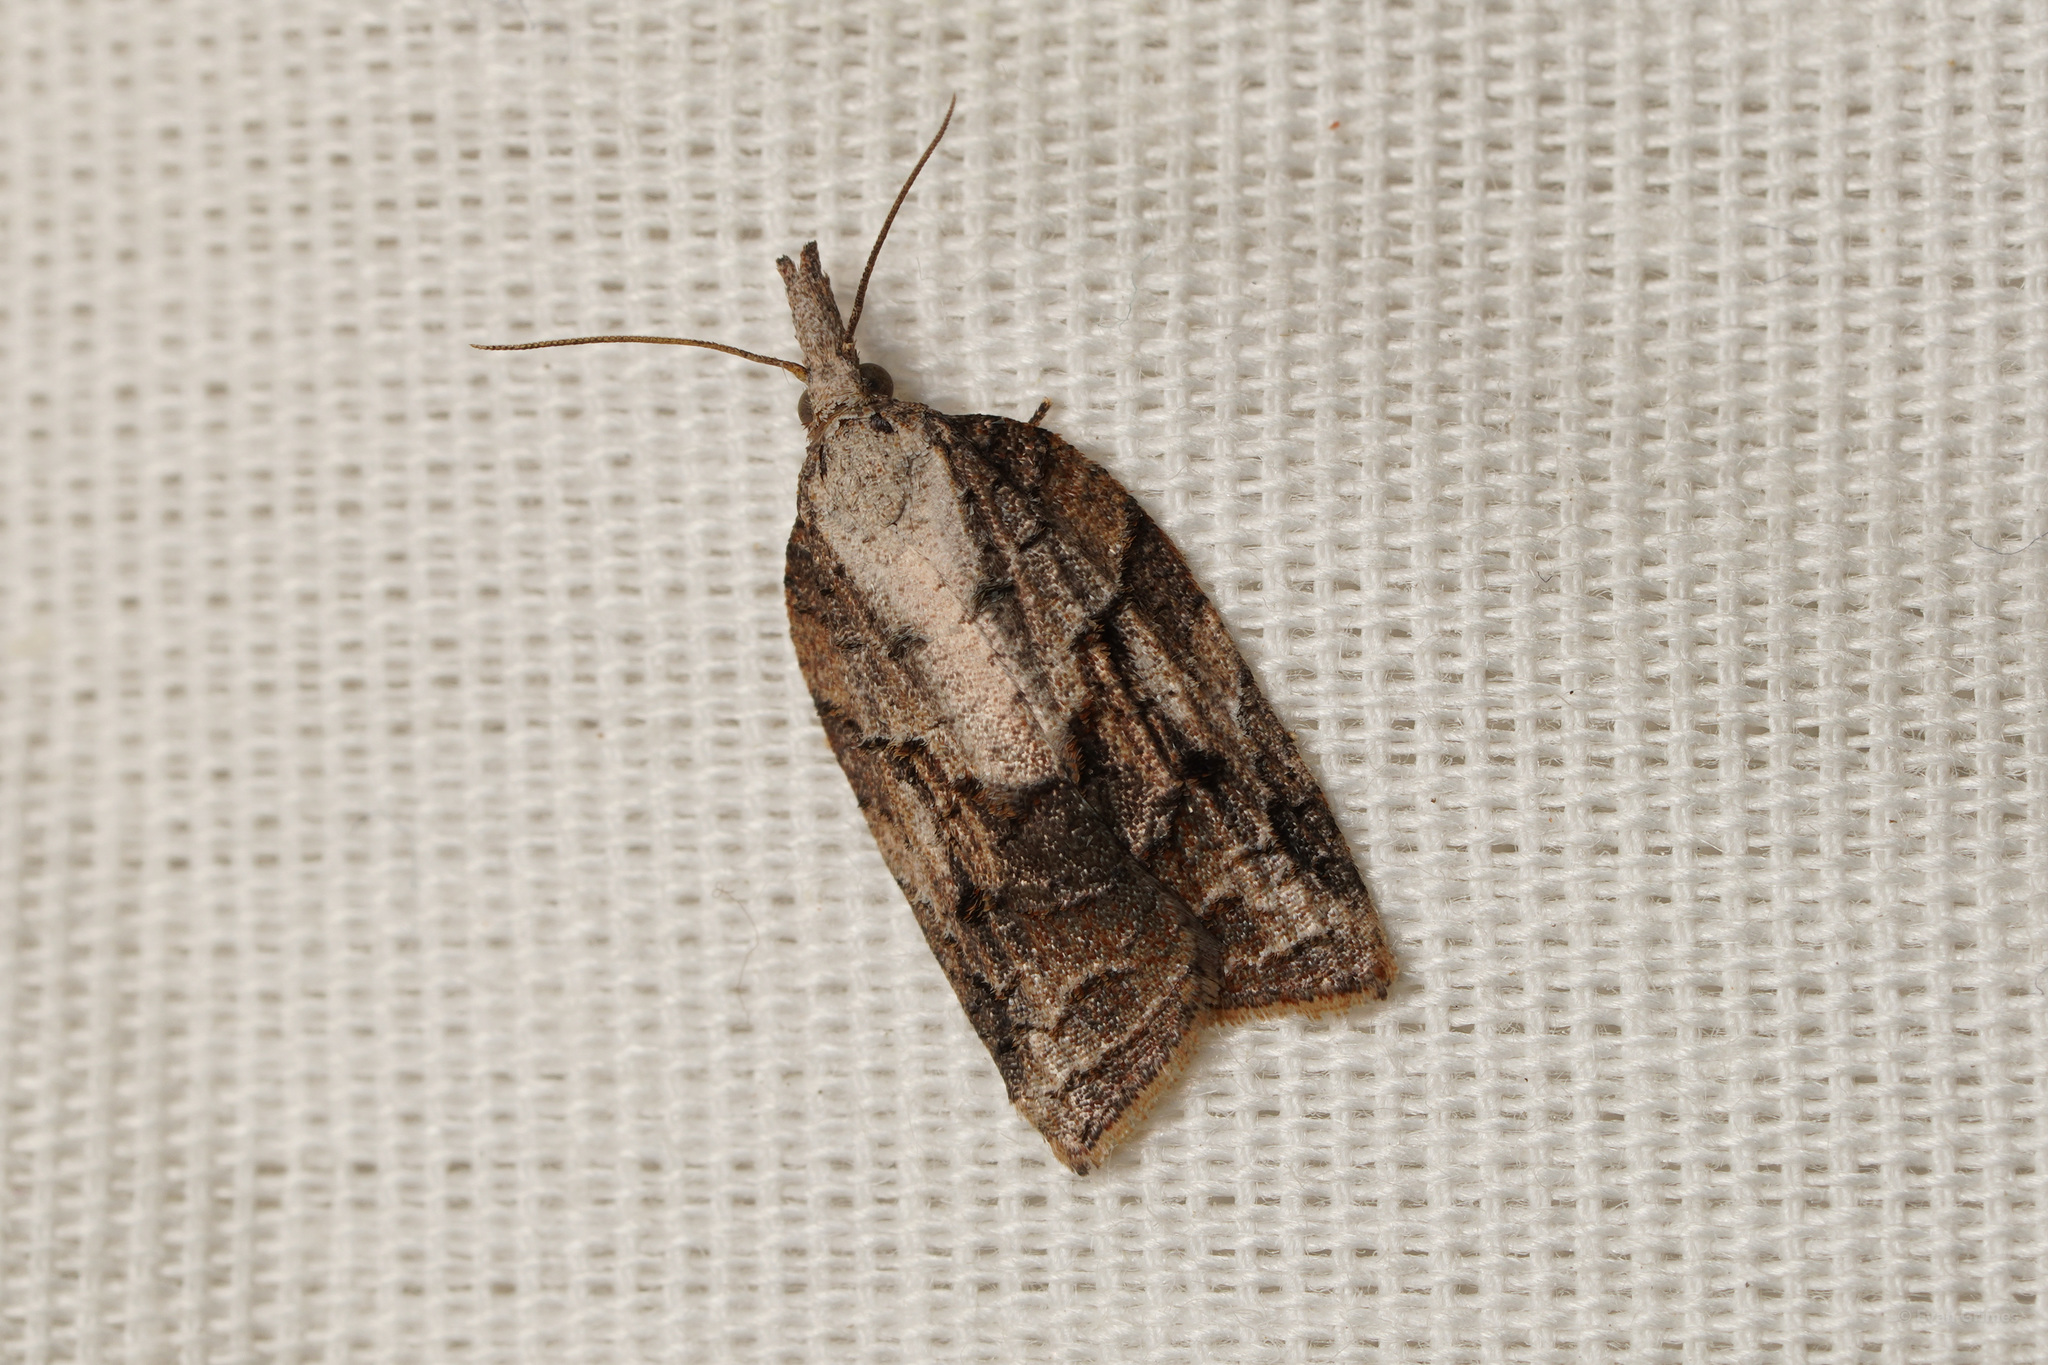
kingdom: Animalia
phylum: Arthropoda
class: Insecta
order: Lepidoptera
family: Tortricidae
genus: Platynota
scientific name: Platynota idaeusalis
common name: Tufted apple bud moth
